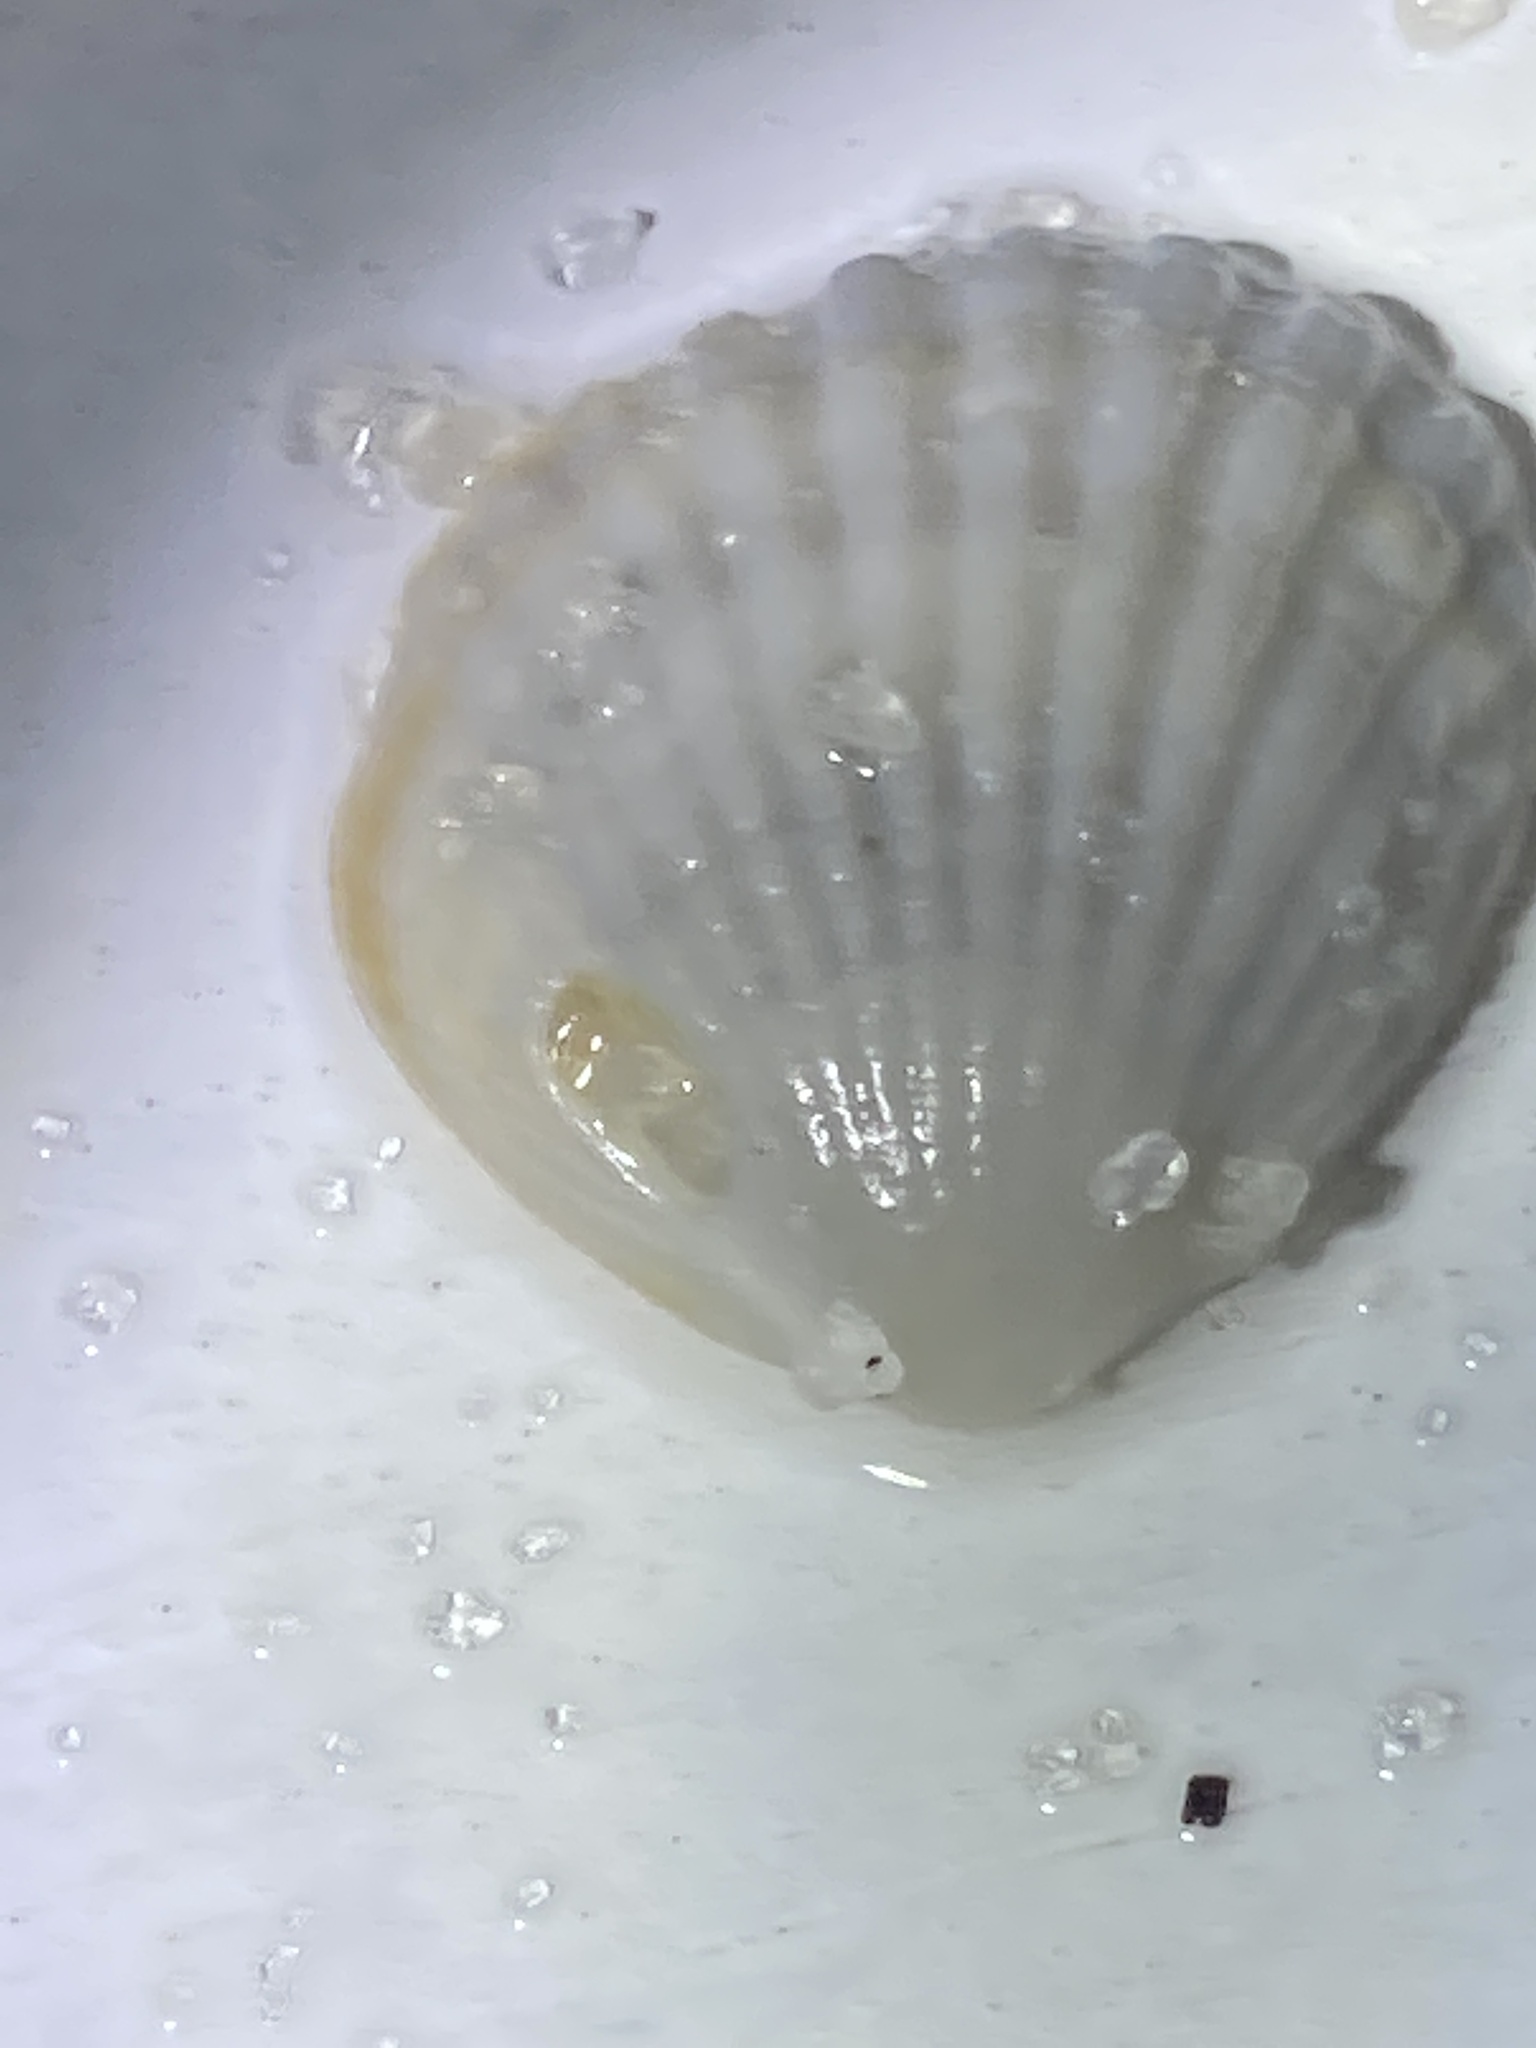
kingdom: Animalia
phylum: Mollusca
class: Bivalvia
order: Arcida
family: Glycymerididae
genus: Tucetona
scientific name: Tucetona pectinata
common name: Comb bittersweet
